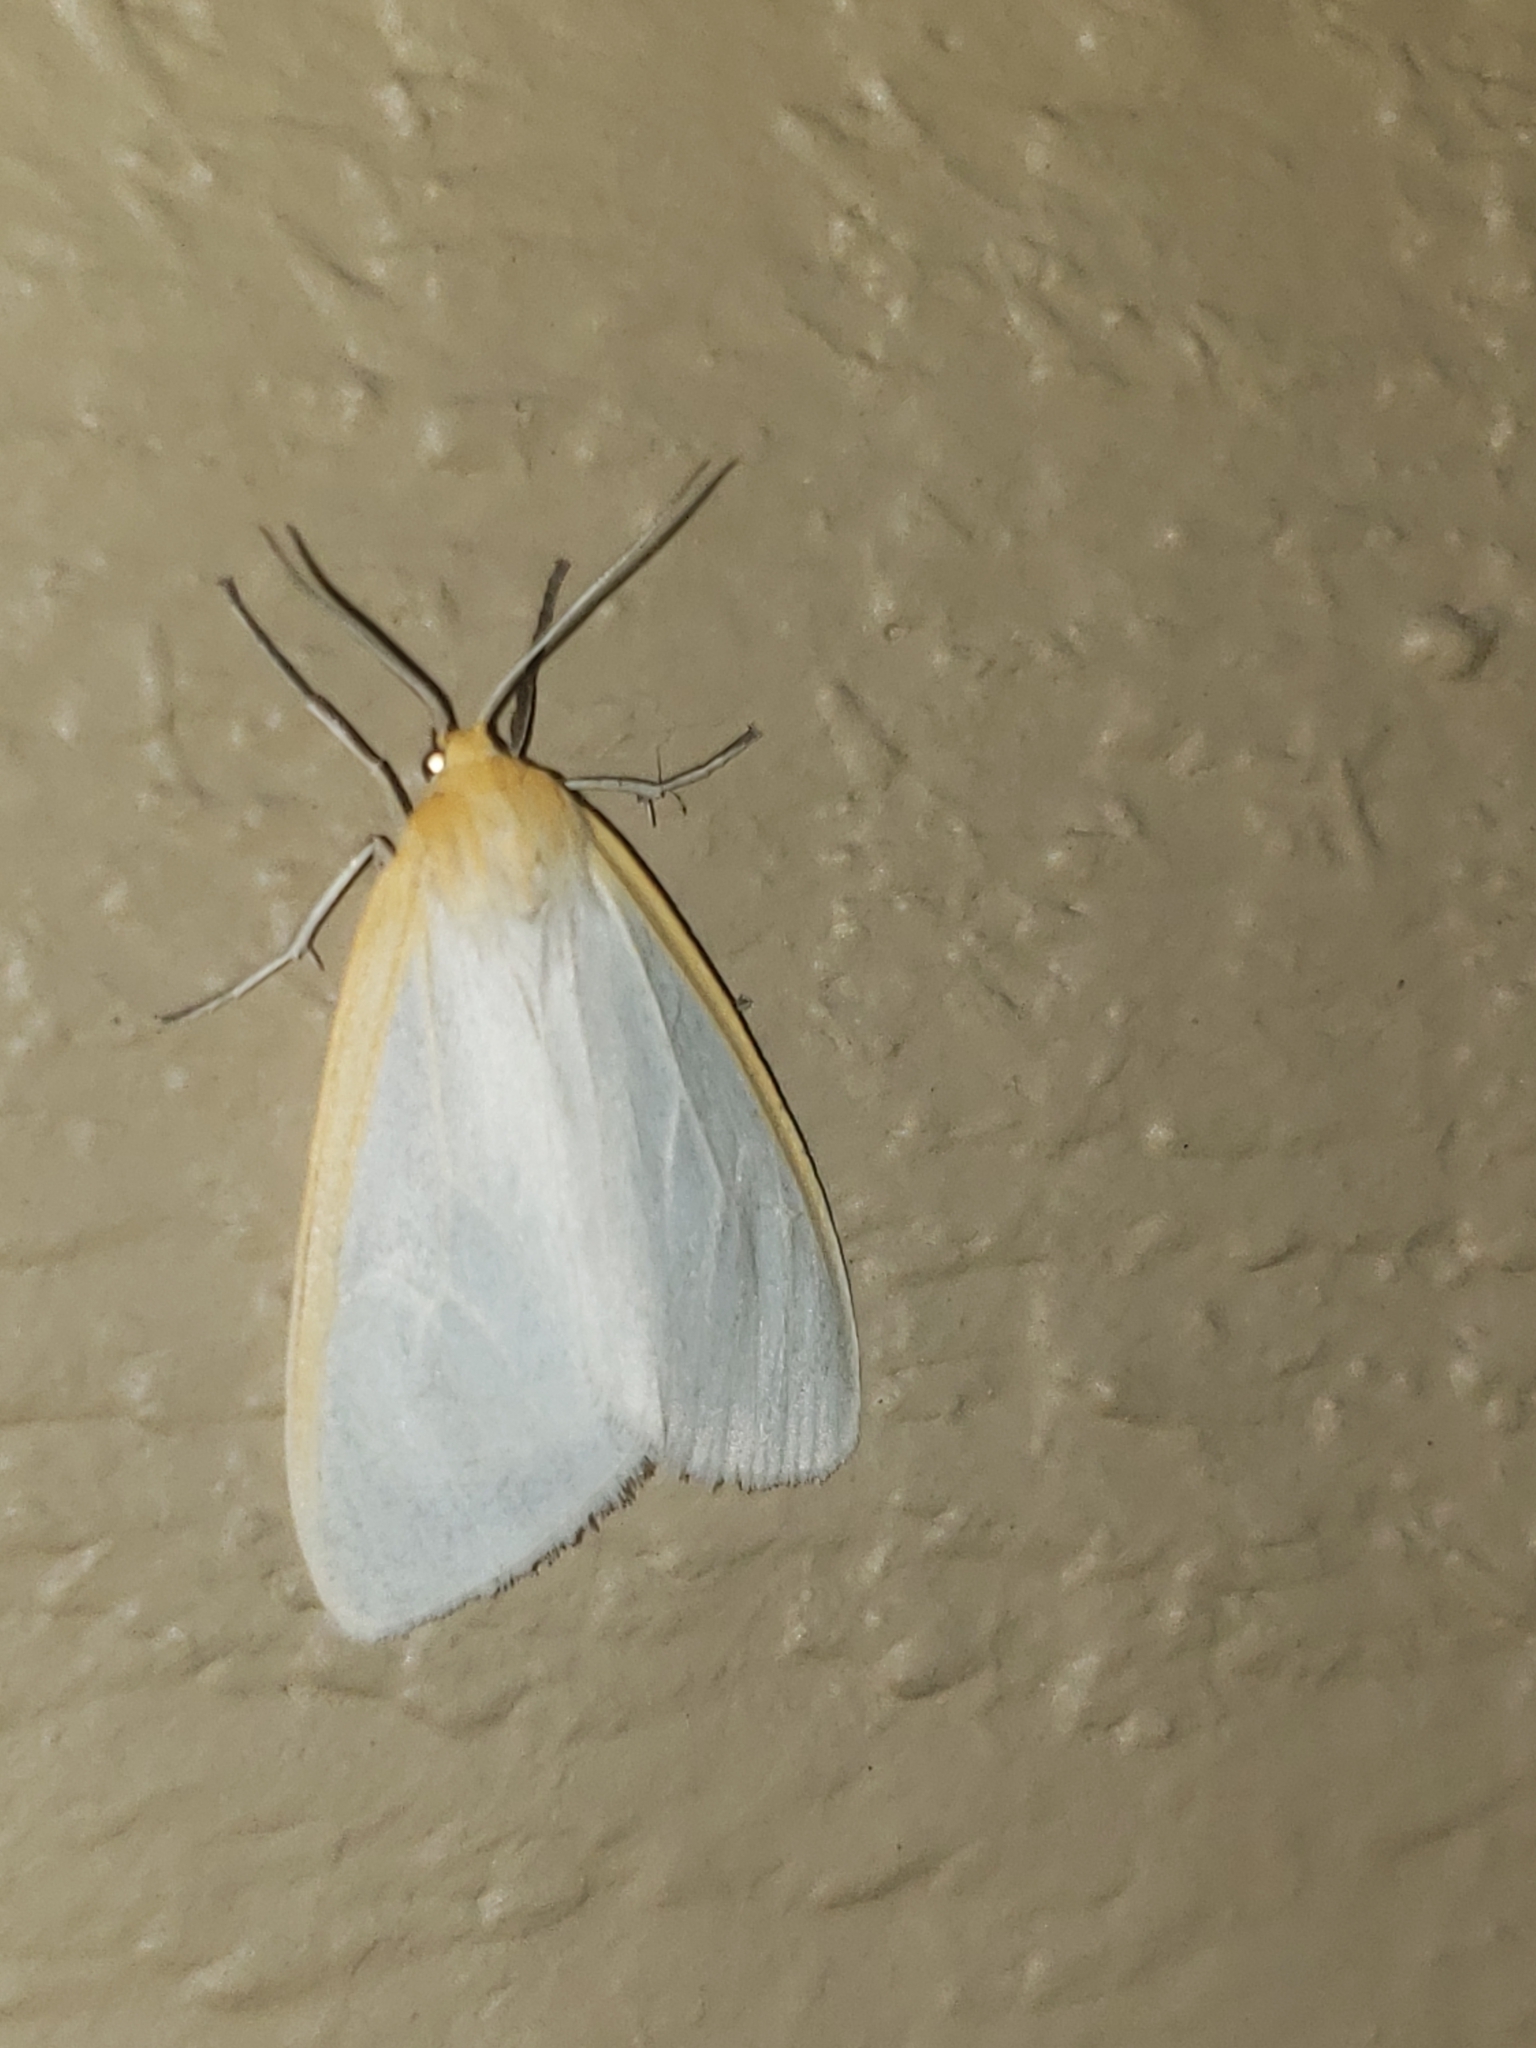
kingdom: Animalia
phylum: Arthropoda
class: Insecta
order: Lepidoptera
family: Erebidae
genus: Cycnia
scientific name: Cycnia tenera
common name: Delicate cycnia moth
